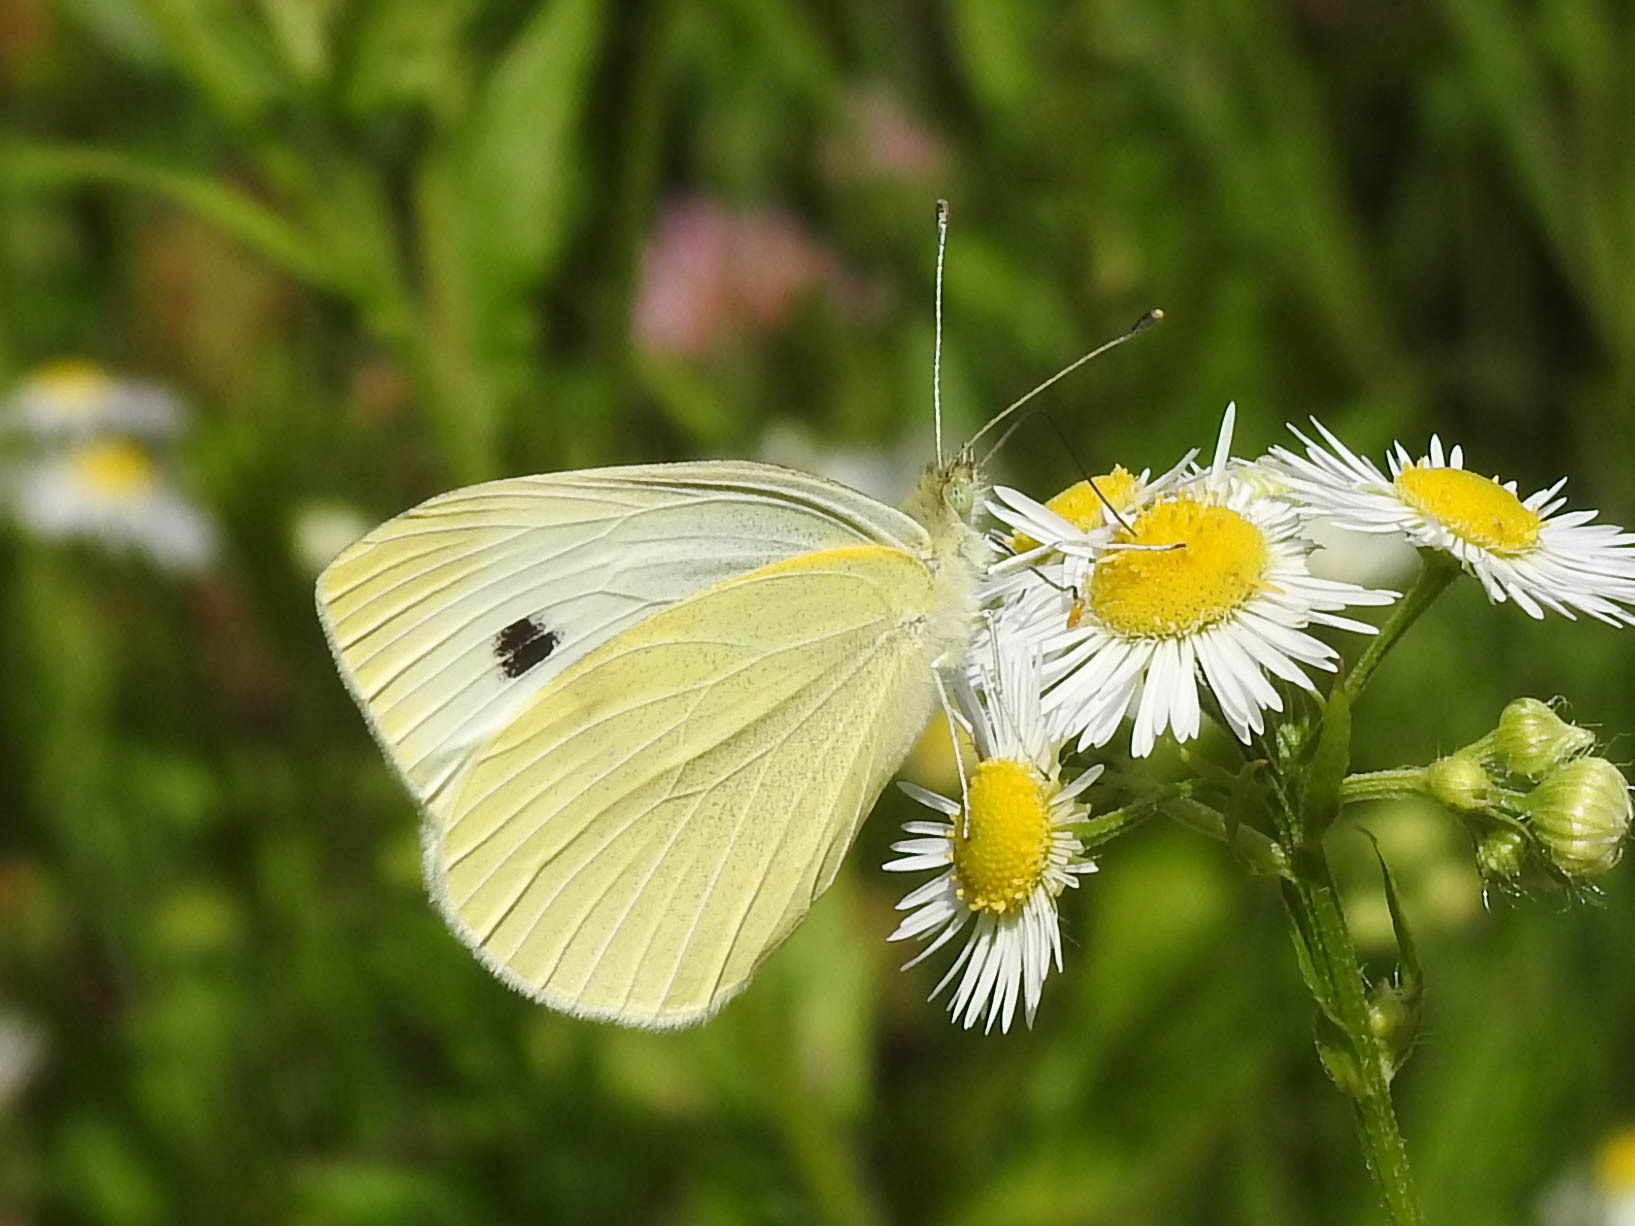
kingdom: Animalia
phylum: Arthropoda
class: Insecta
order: Lepidoptera
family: Pieridae
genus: Pieris
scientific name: Pieris rapae
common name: Small white
